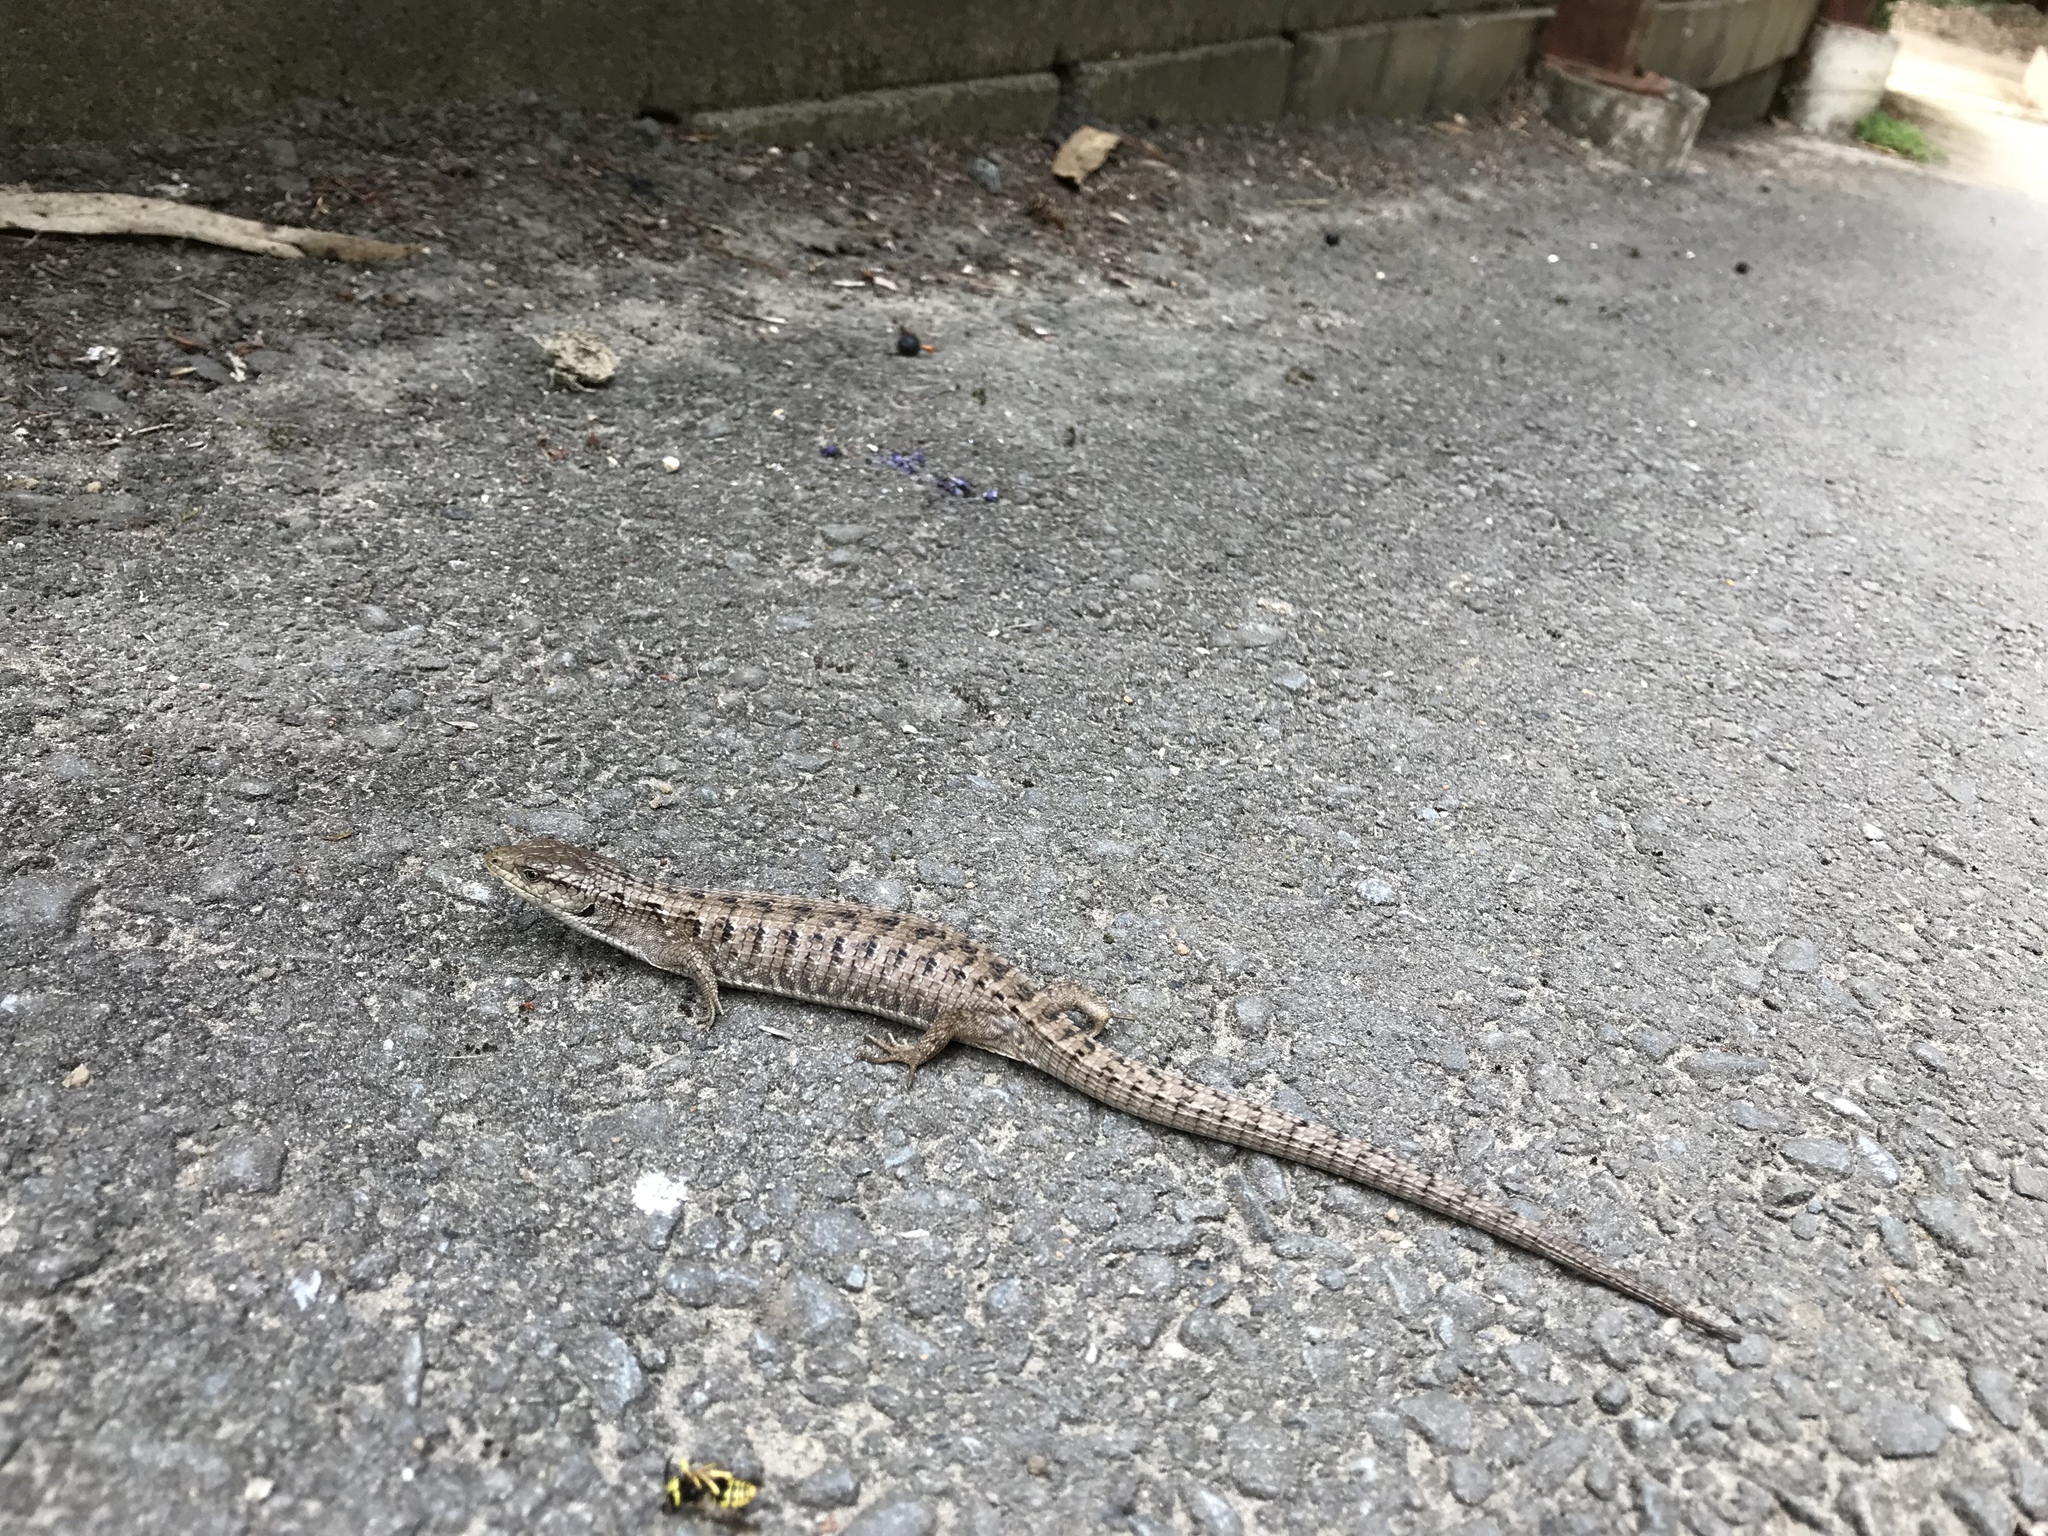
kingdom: Animalia
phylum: Chordata
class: Squamata
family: Anguidae
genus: Elgaria
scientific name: Elgaria coerulea
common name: Northern alligator lizard
